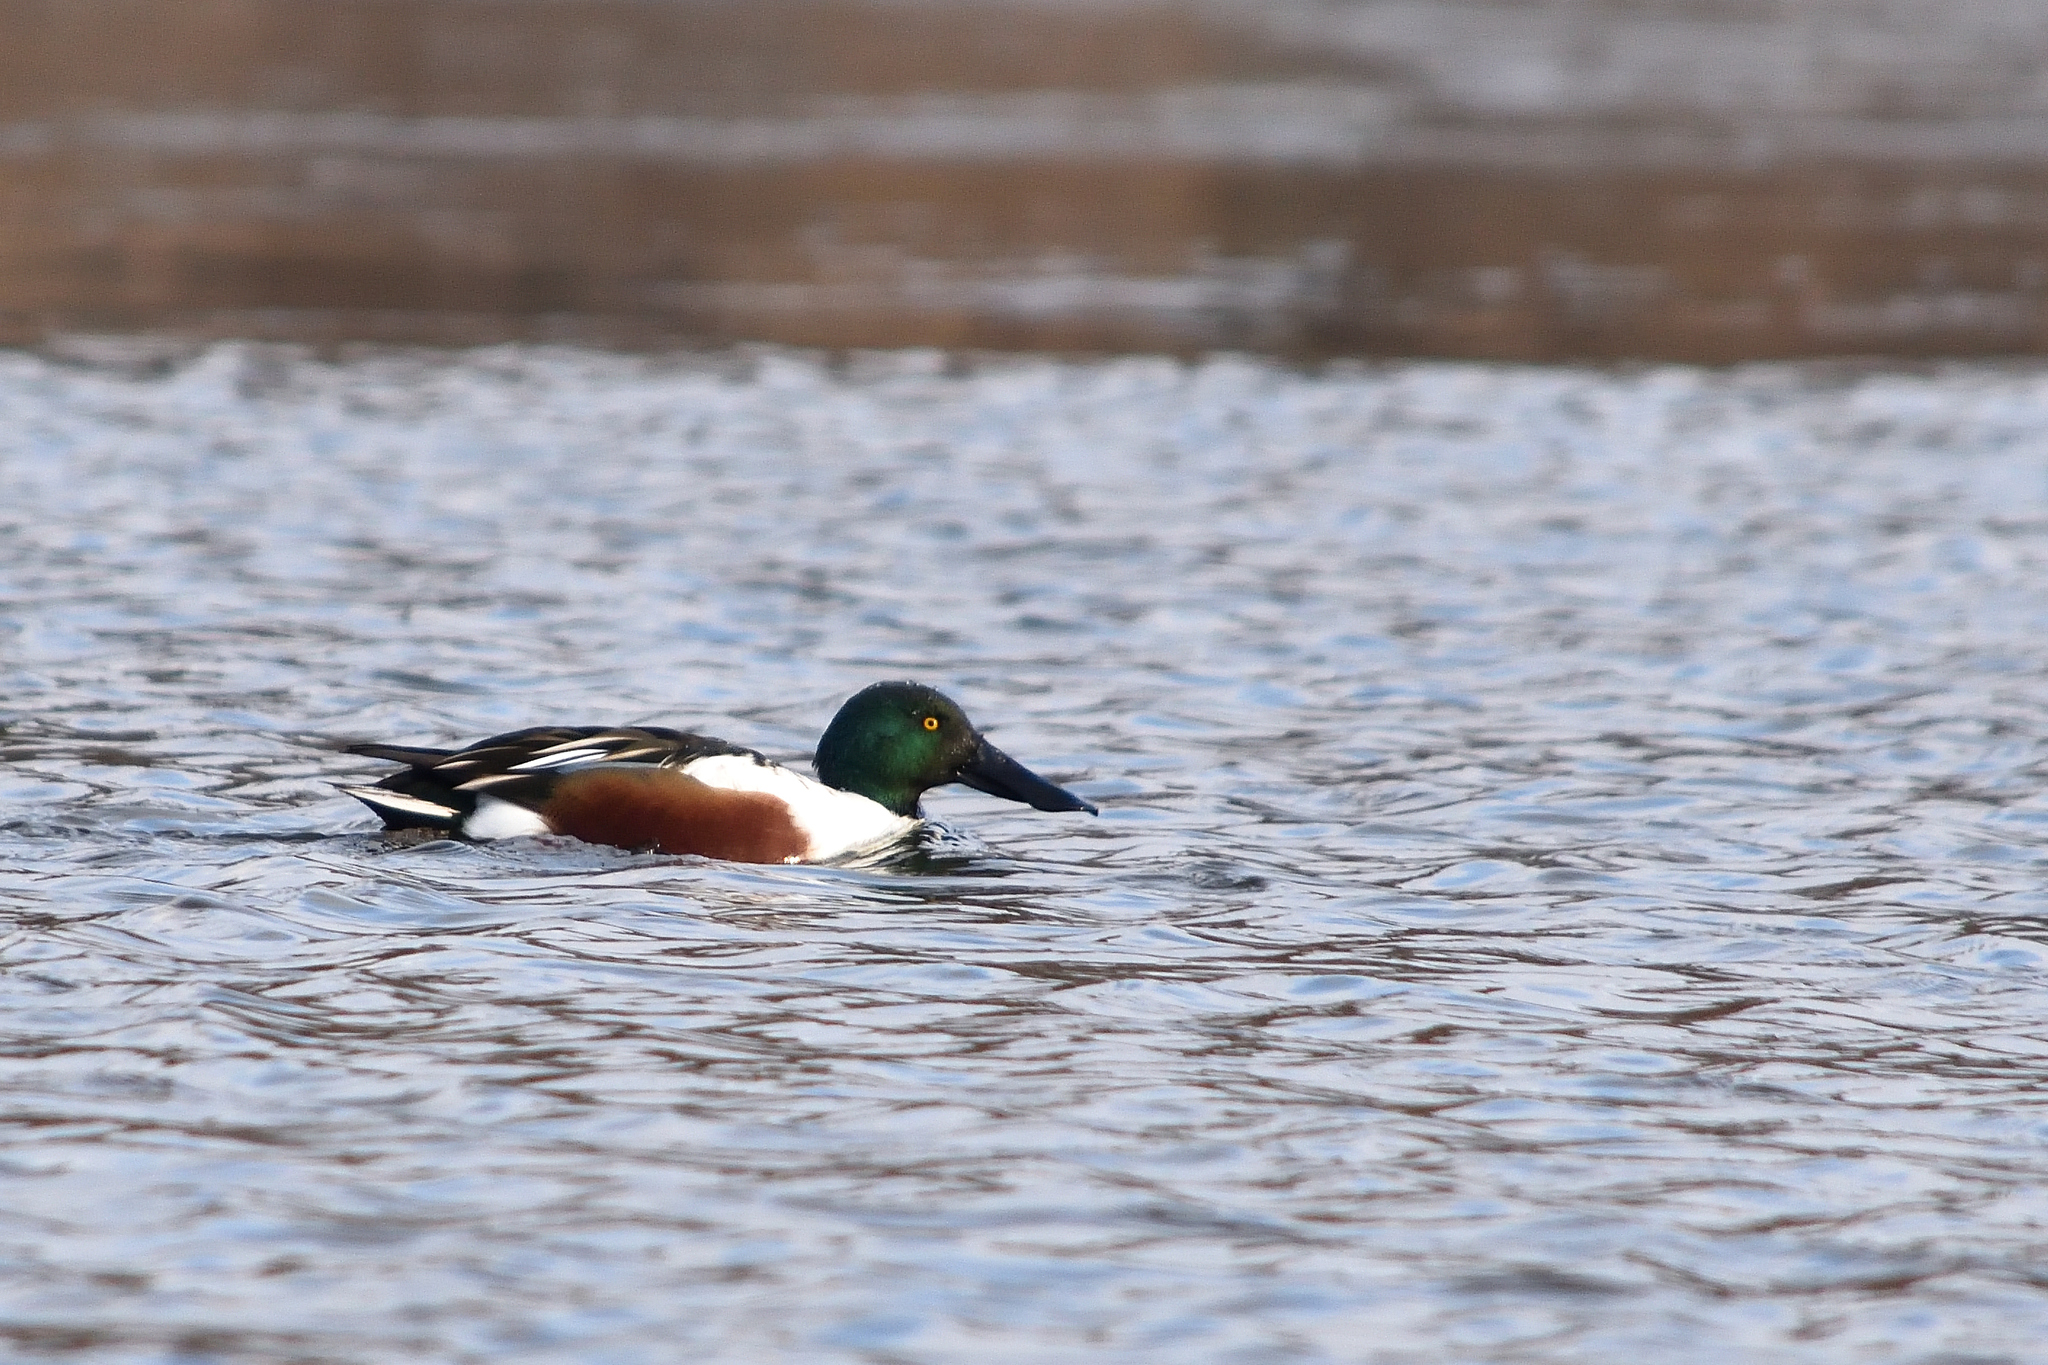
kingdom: Animalia
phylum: Chordata
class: Aves
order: Anseriformes
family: Anatidae
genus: Spatula
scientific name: Spatula clypeata
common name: Northern shoveler
